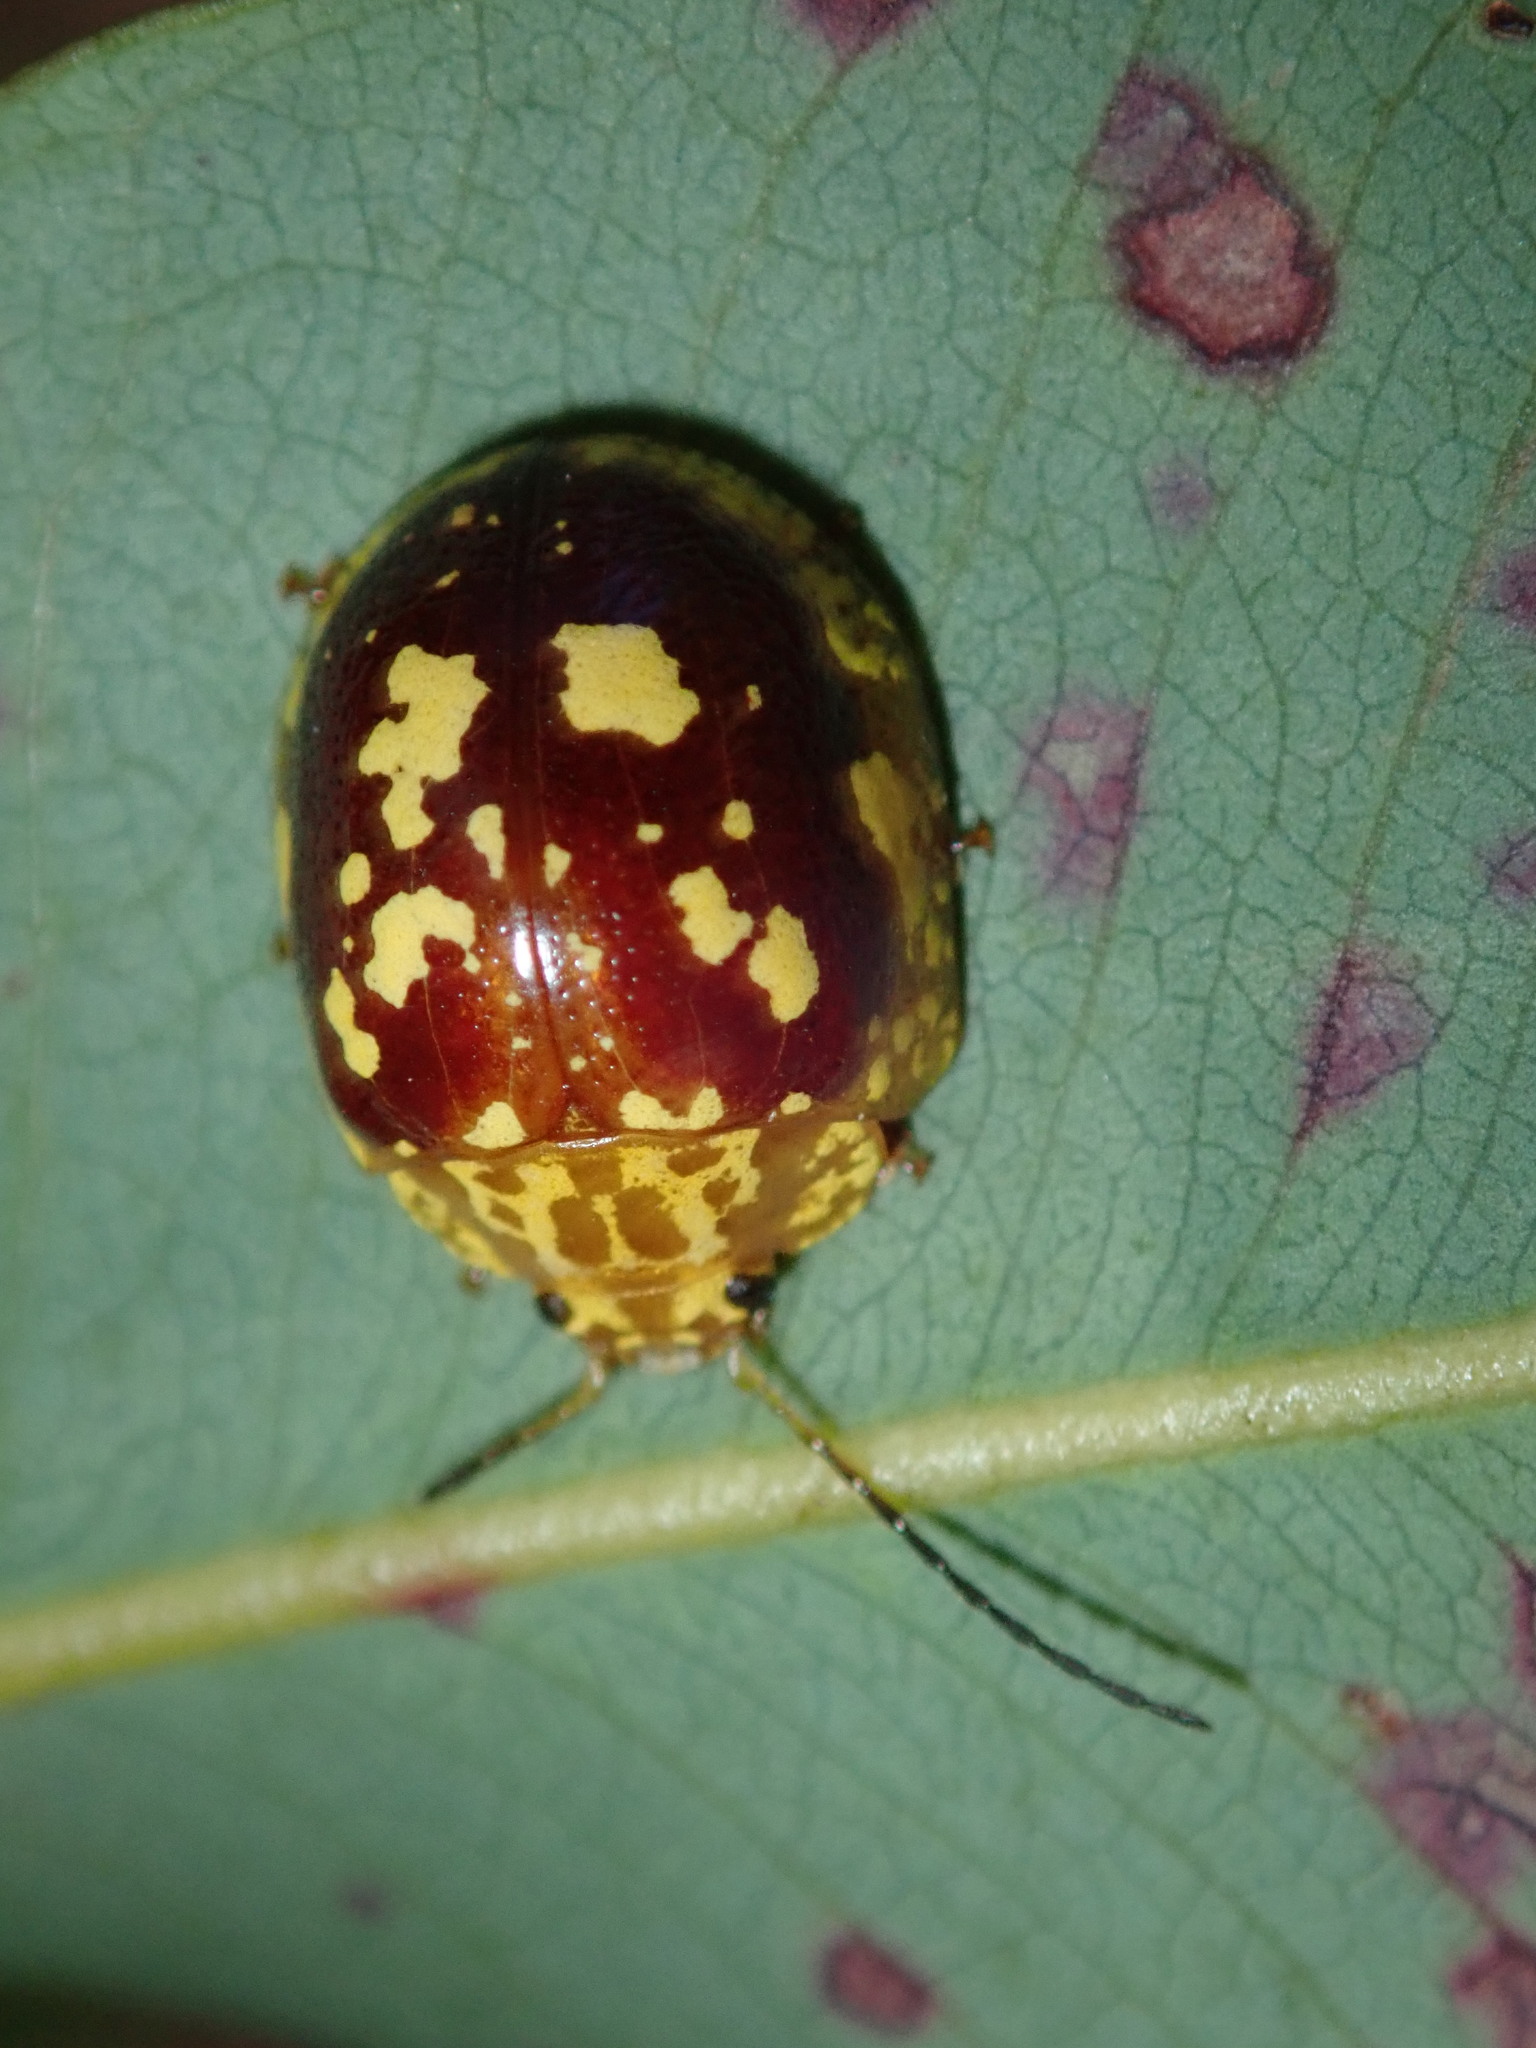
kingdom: Animalia
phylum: Arthropoda
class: Insecta
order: Coleoptera
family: Chrysomelidae
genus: Paropsis
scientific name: Paropsis maculata
